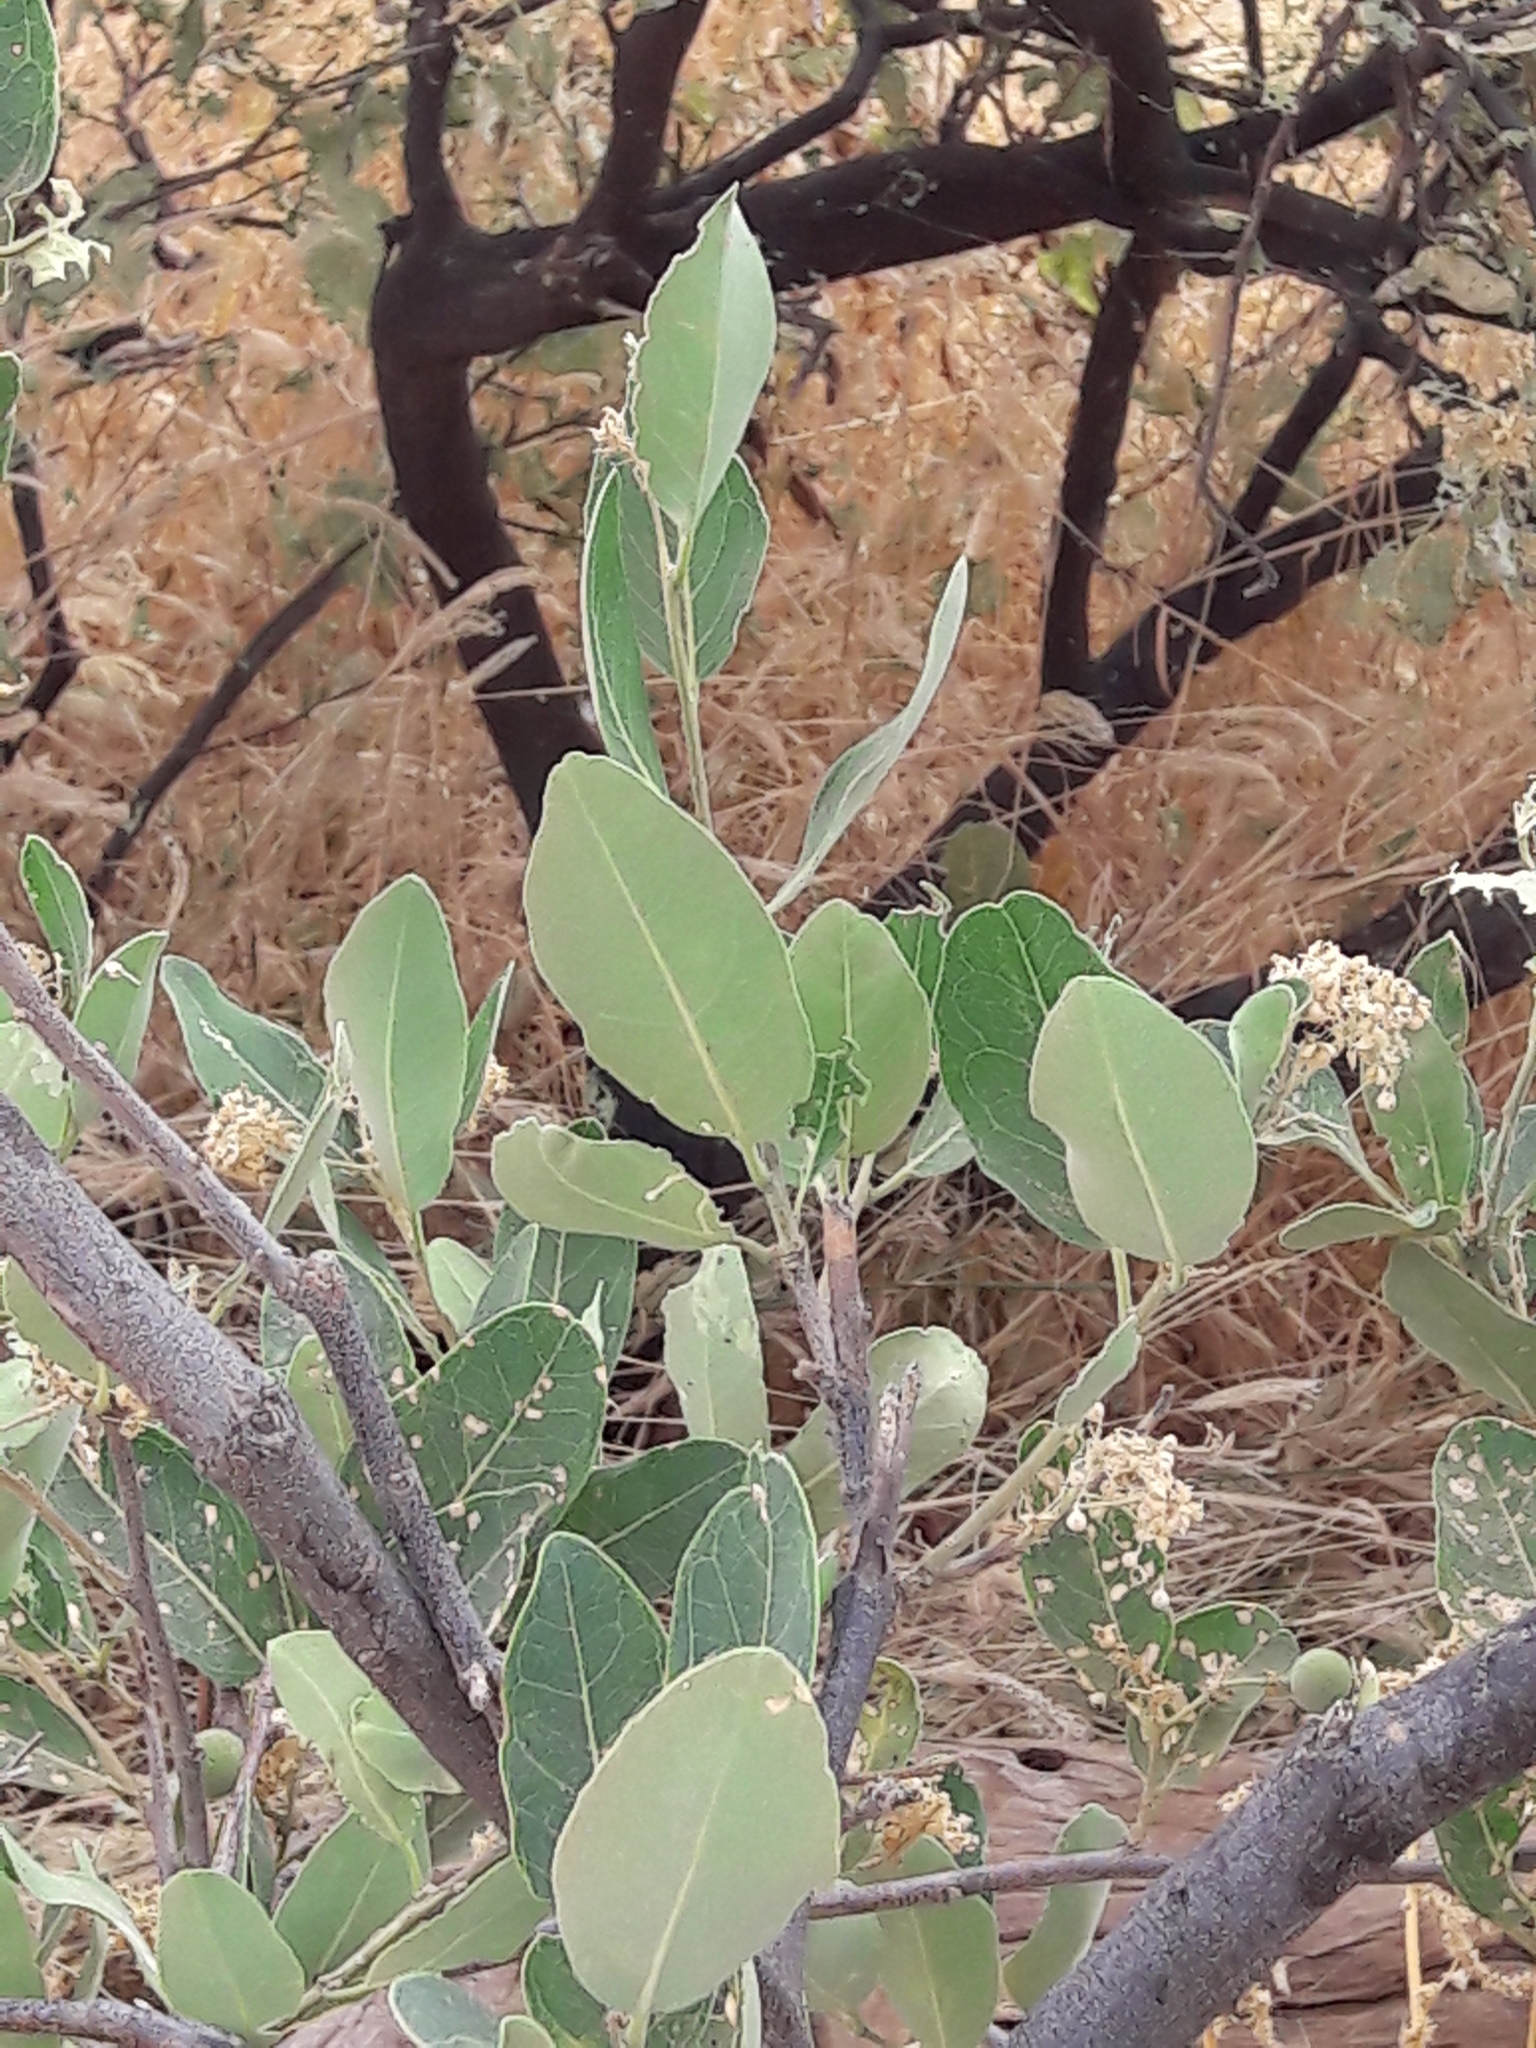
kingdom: Plantae
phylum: Tracheophyta
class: Magnoliopsida
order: Brassicales
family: Capparaceae
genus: Boscia
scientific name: Boscia senegalensis
